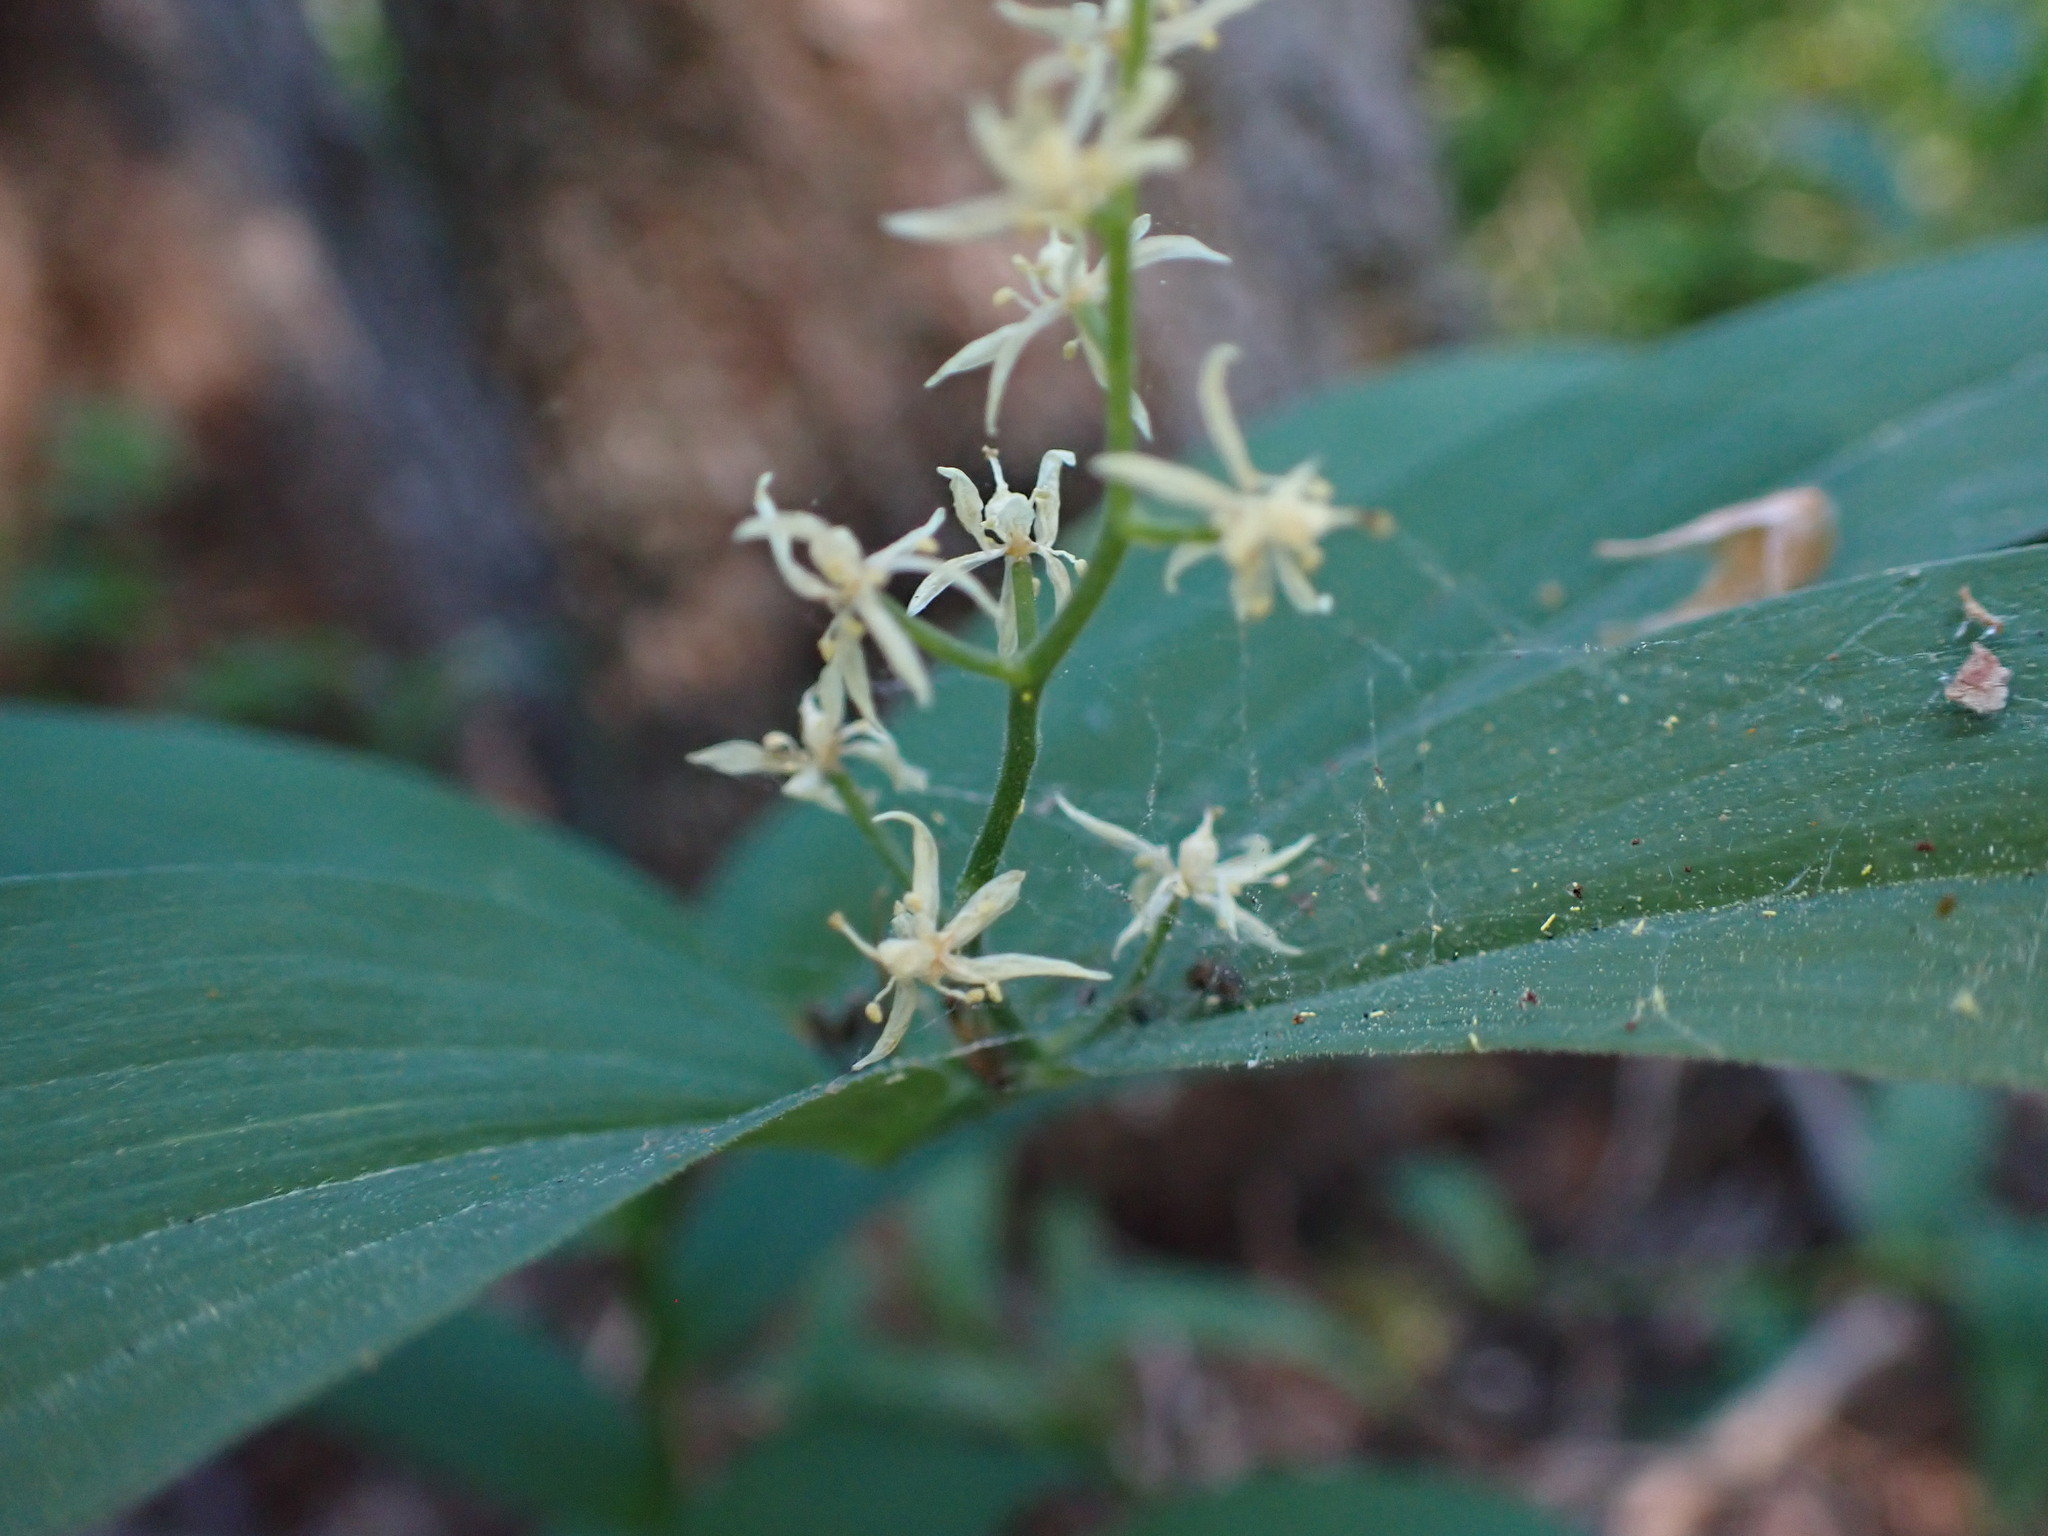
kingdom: Plantae
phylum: Tracheophyta
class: Liliopsida
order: Asparagales
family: Asparagaceae
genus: Maianthemum
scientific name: Maianthemum stellatum
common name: Little false solomon's seal
